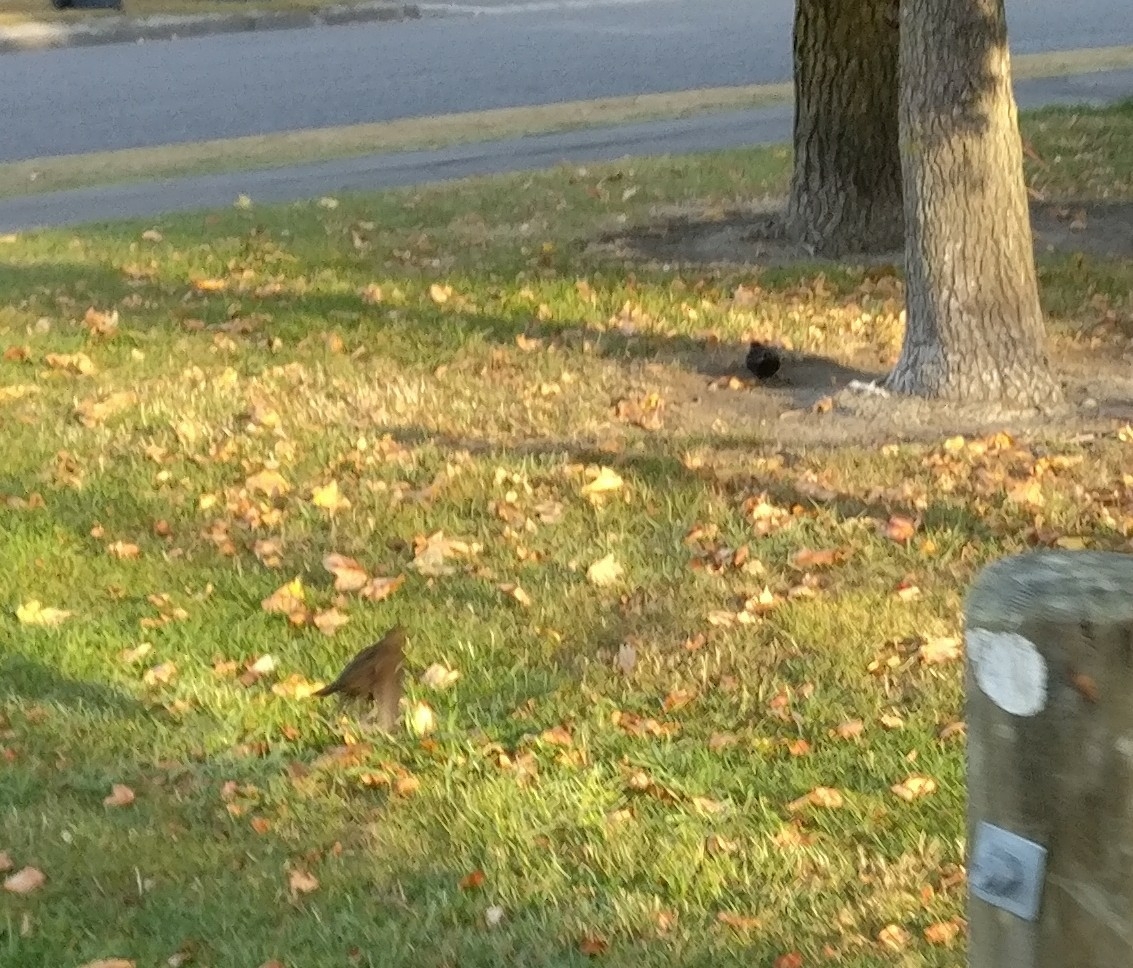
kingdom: Animalia
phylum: Chordata
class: Aves
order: Passeriformes
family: Turdidae
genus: Turdus
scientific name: Turdus merula
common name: Common blackbird
